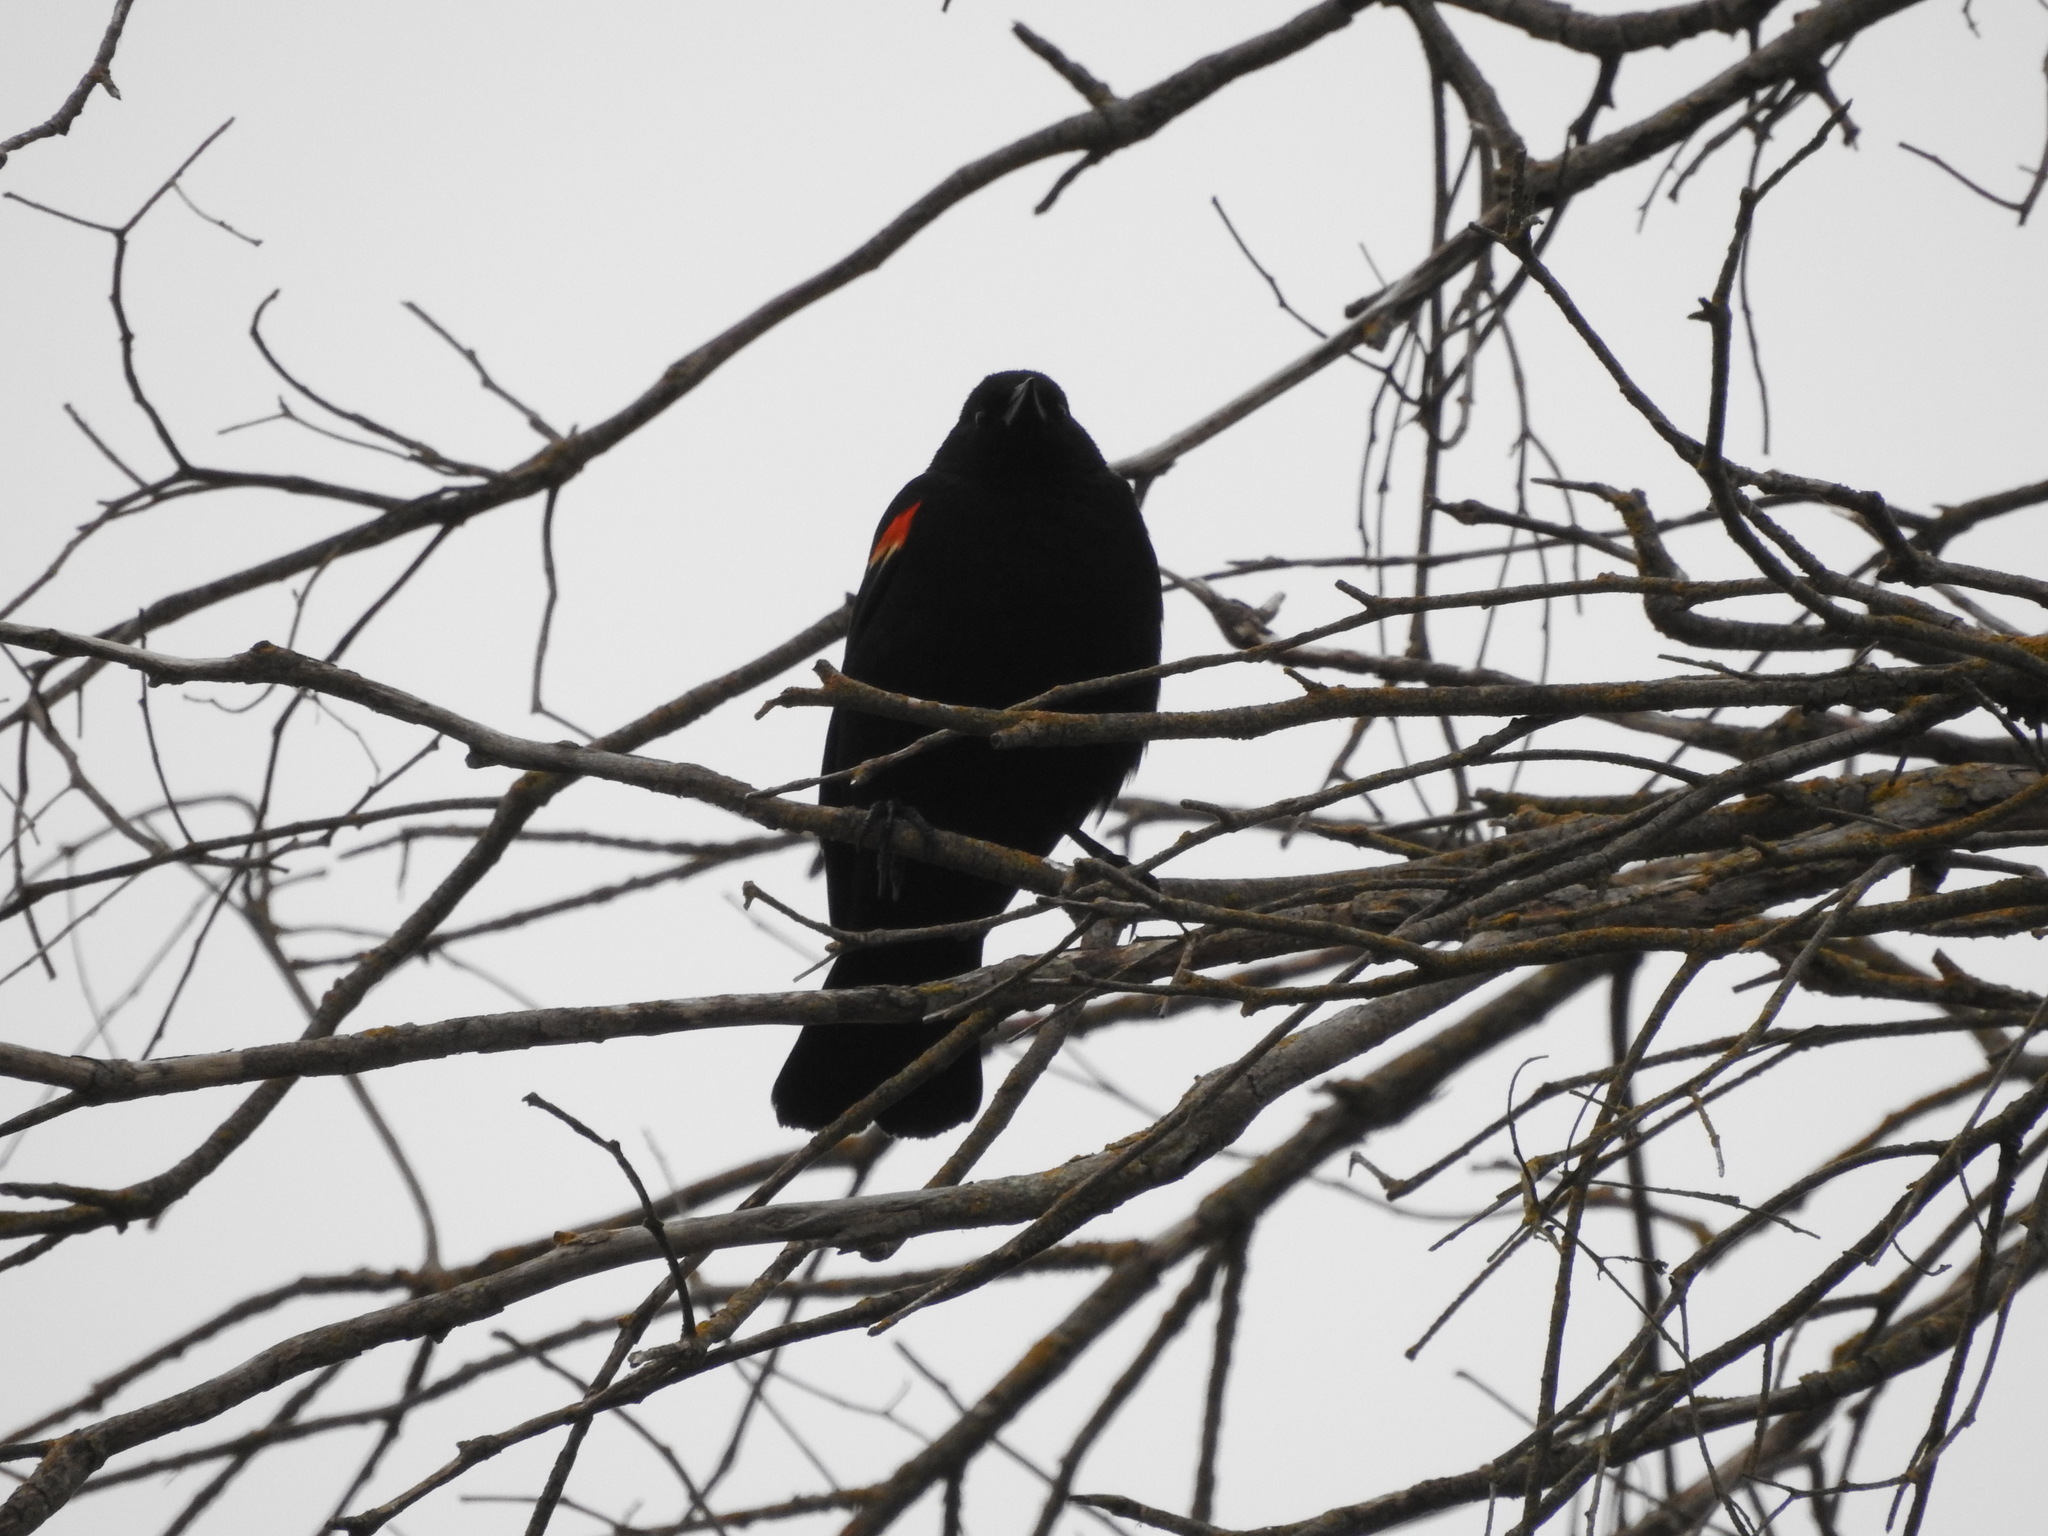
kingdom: Animalia
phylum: Chordata
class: Aves
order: Passeriformes
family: Icteridae
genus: Agelaius
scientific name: Agelaius phoeniceus
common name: Red-winged blackbird
